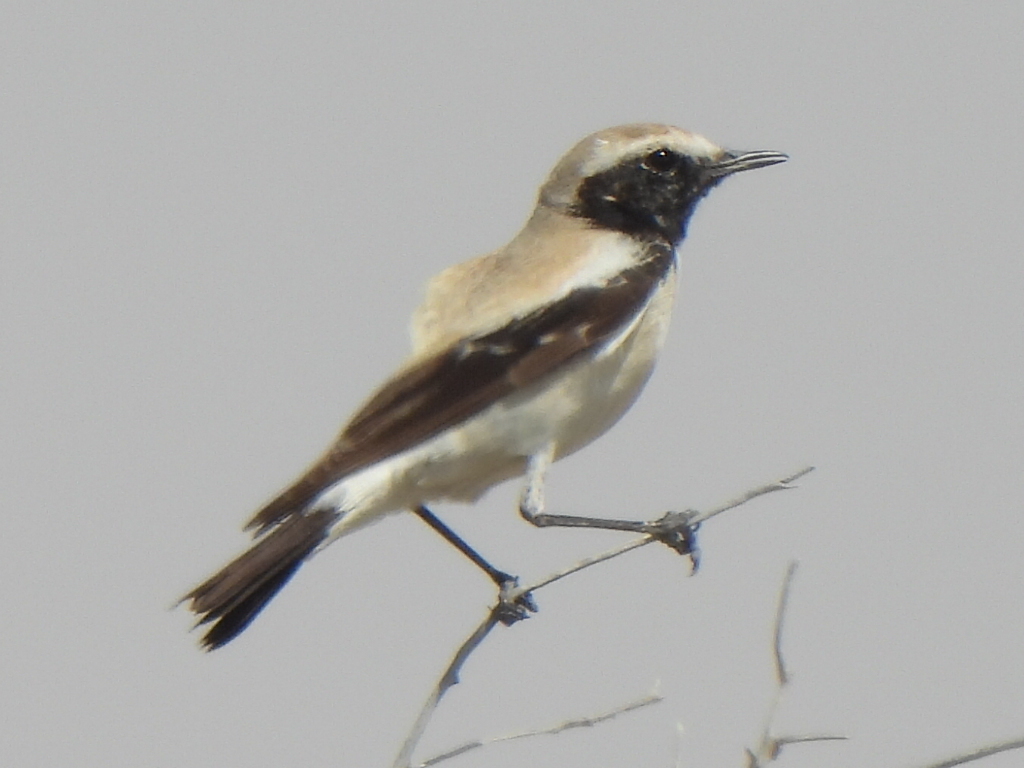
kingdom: Animalia
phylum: Chordata
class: Aves
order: Passeriformes
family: Muscicapidae
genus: Oenanthe
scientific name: Oenanthe deserti
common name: Desert wheatear
